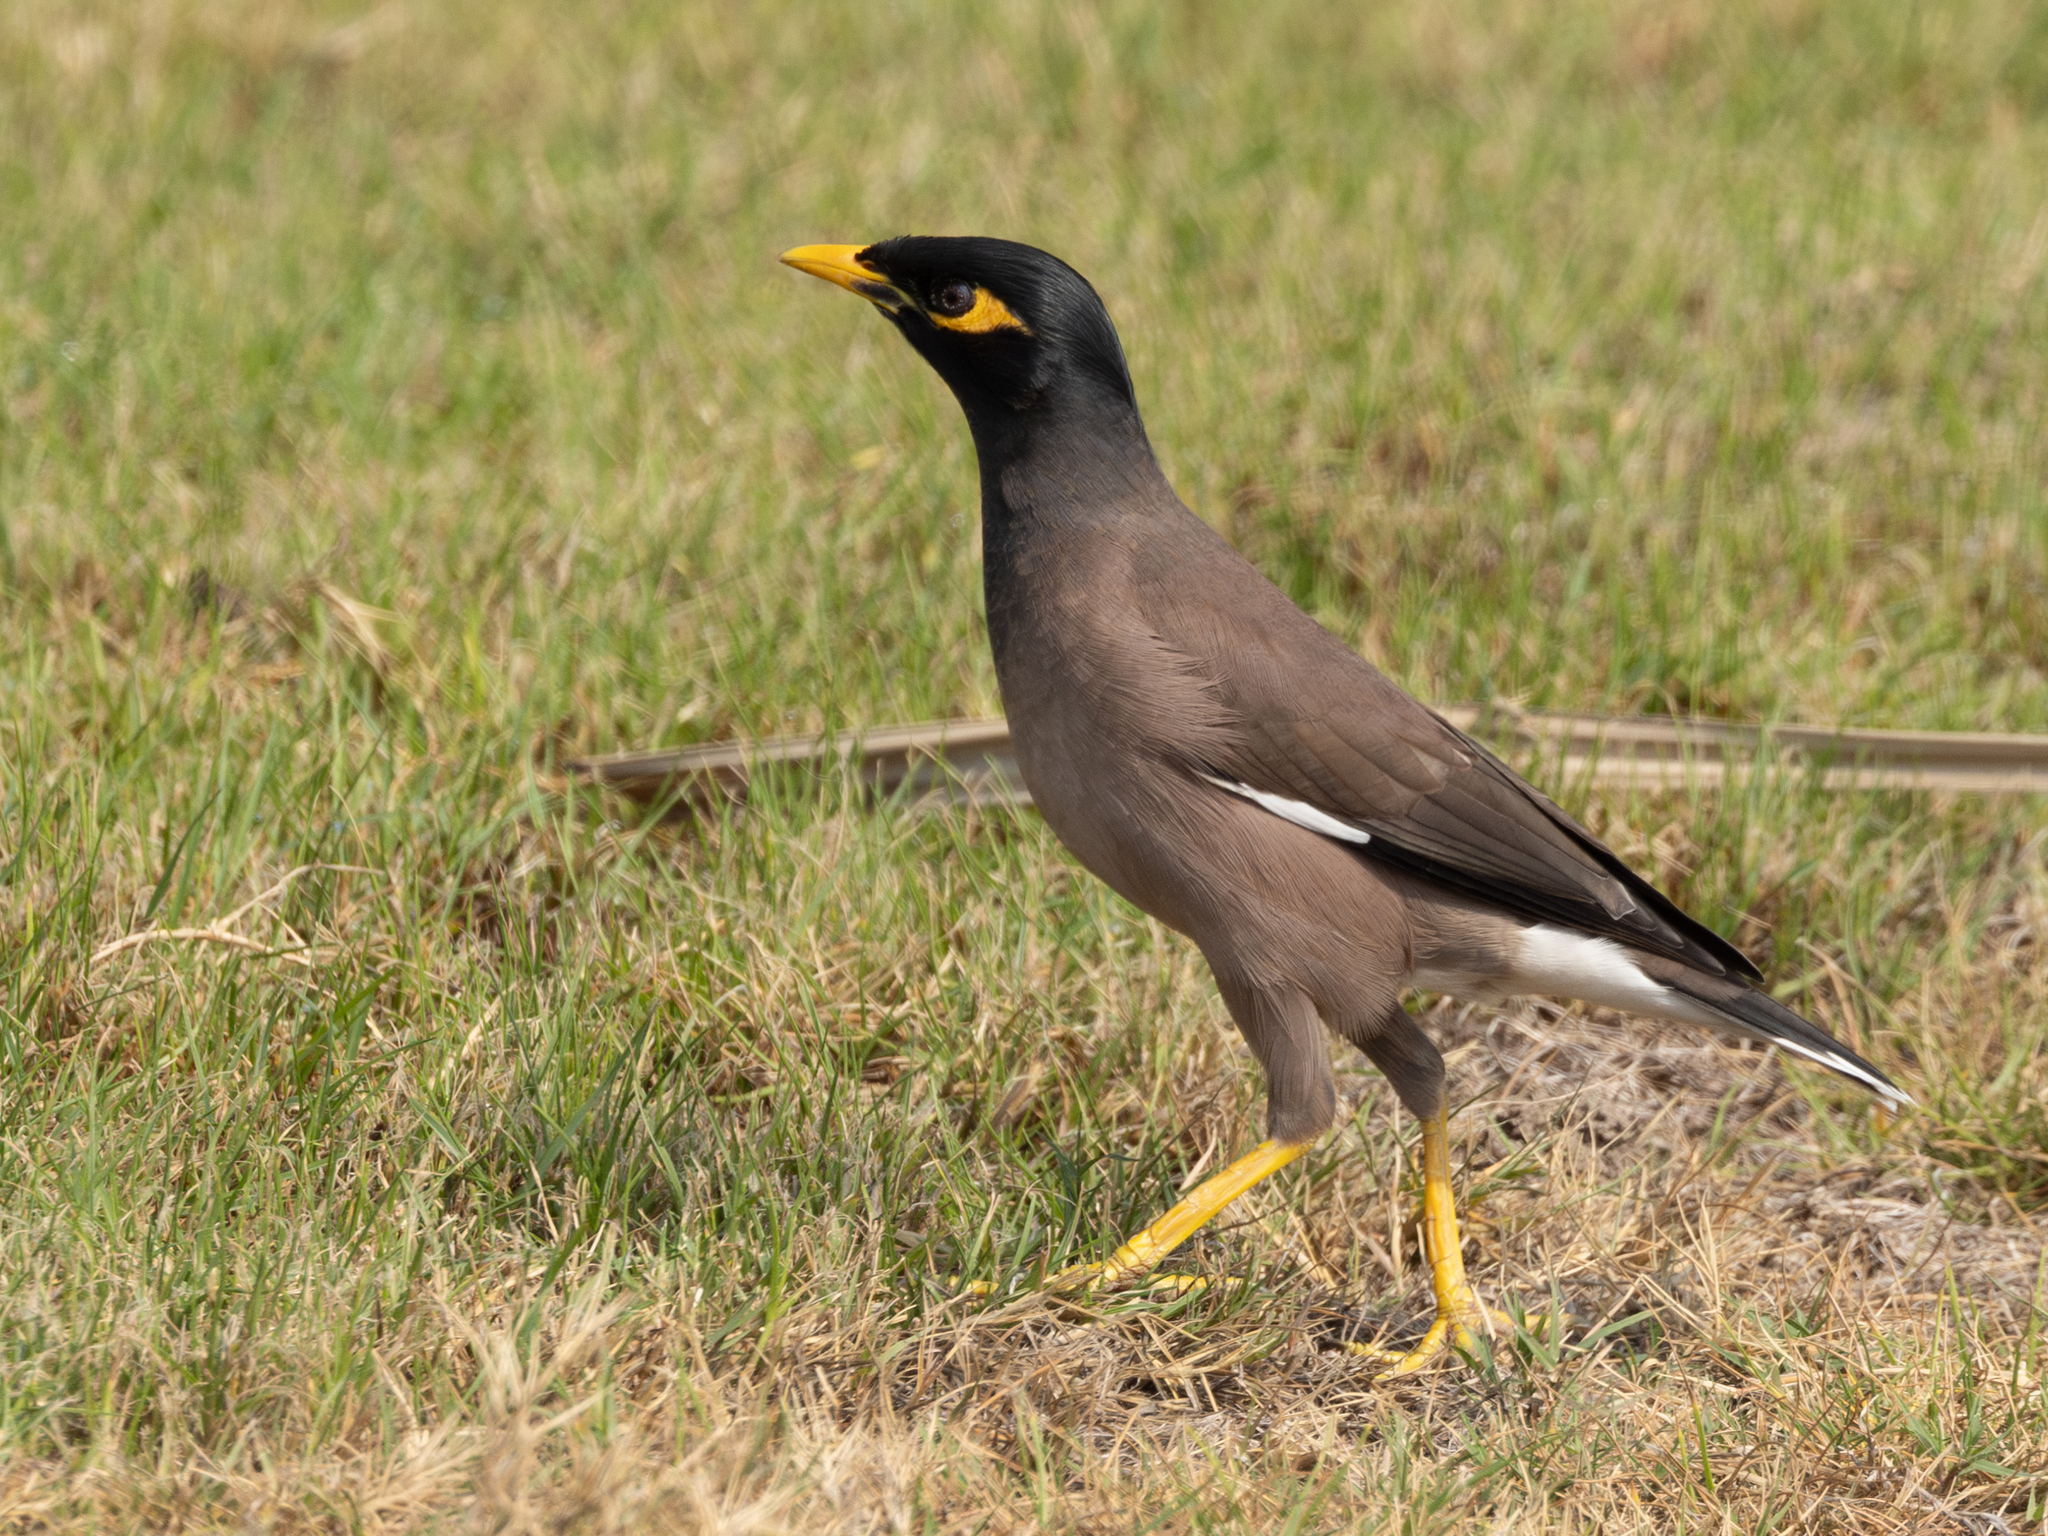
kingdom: Animalia
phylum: Chordata
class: Aves
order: Passeriformes
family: Sturnidae
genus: Acridotheres
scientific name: Acridotheres tristis
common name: Common myna
